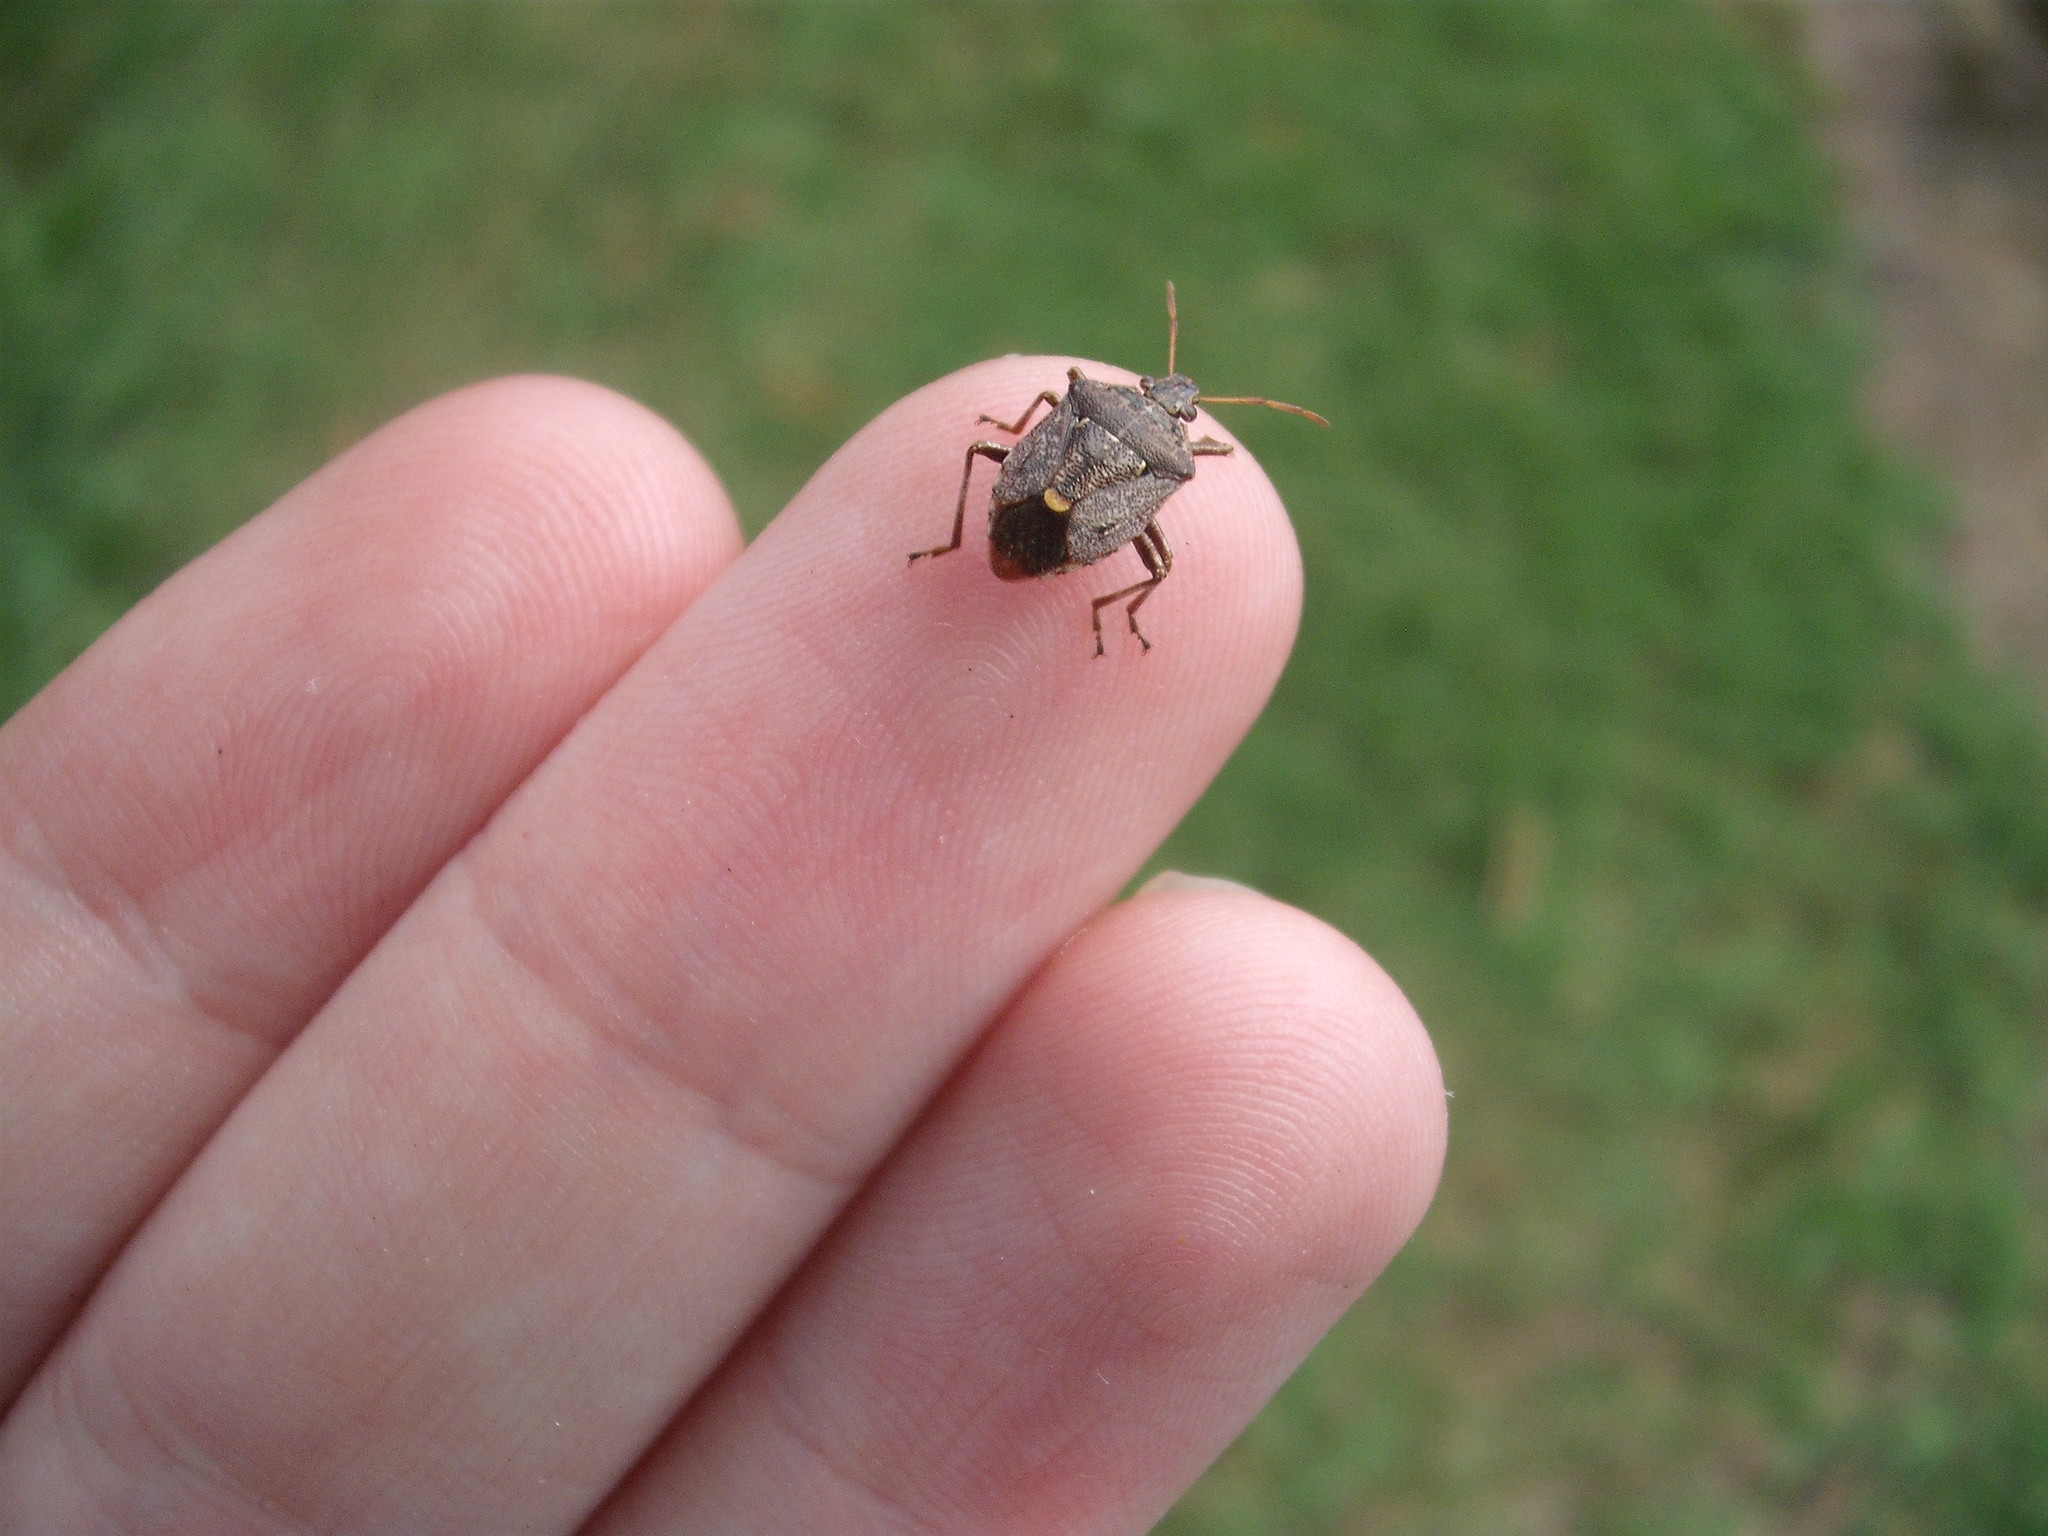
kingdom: Animalia
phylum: Arthropoda
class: Insecta
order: Hemiptera
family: Pentatomidae
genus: Cermatulus
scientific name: Cermatulus nasalis
